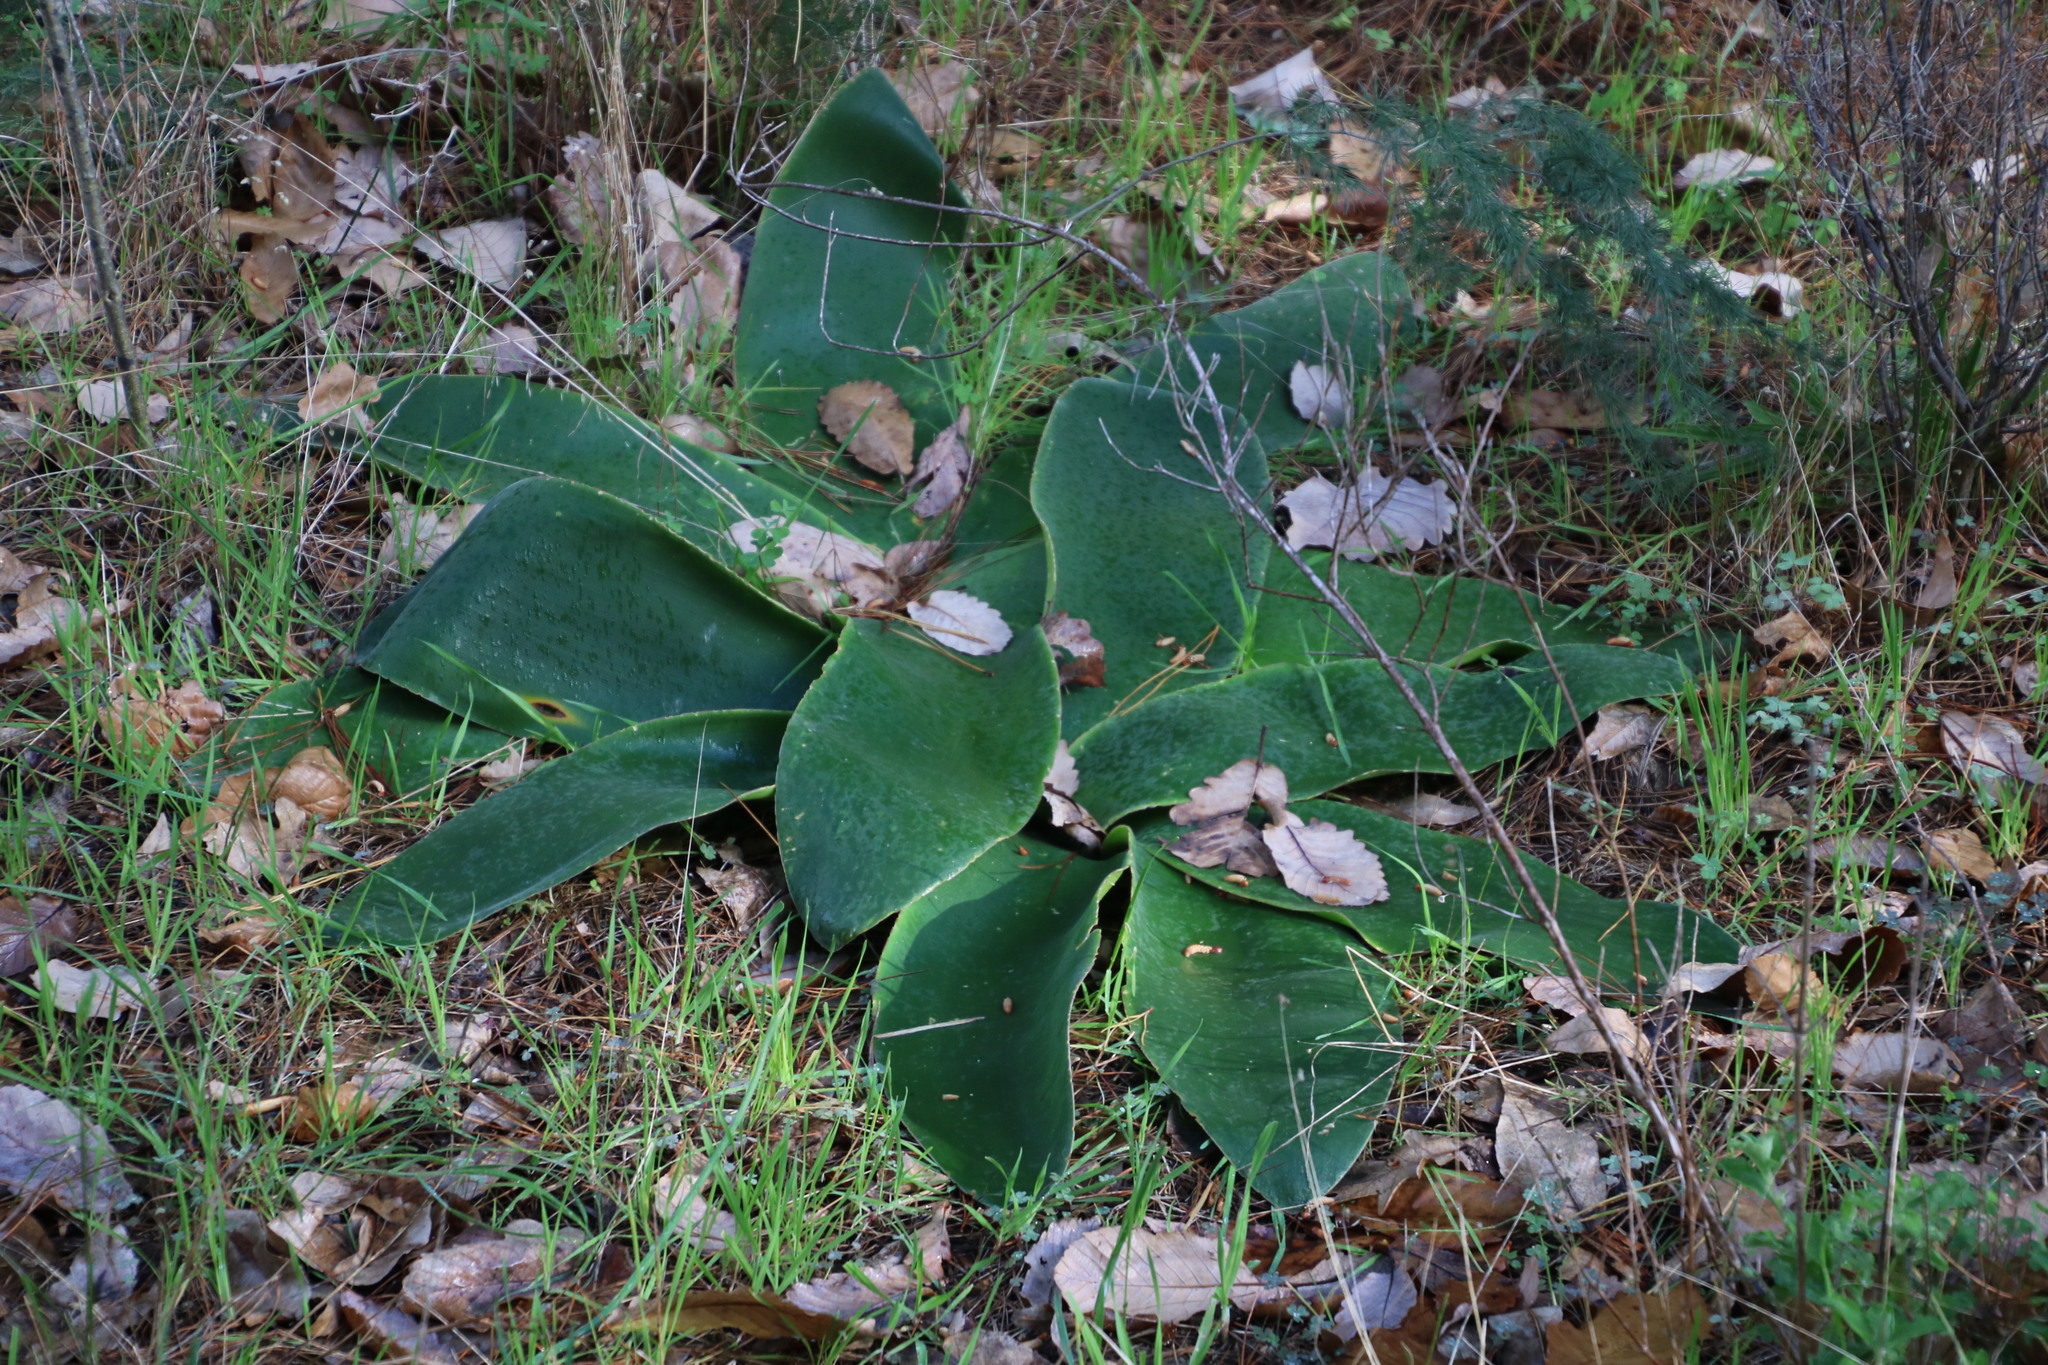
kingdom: Plantae
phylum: Tracheophyta
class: Liliopsida
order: Asparagales
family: Amaryllidaceae
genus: Brunsvigia
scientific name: Brunsvigia orientalis
